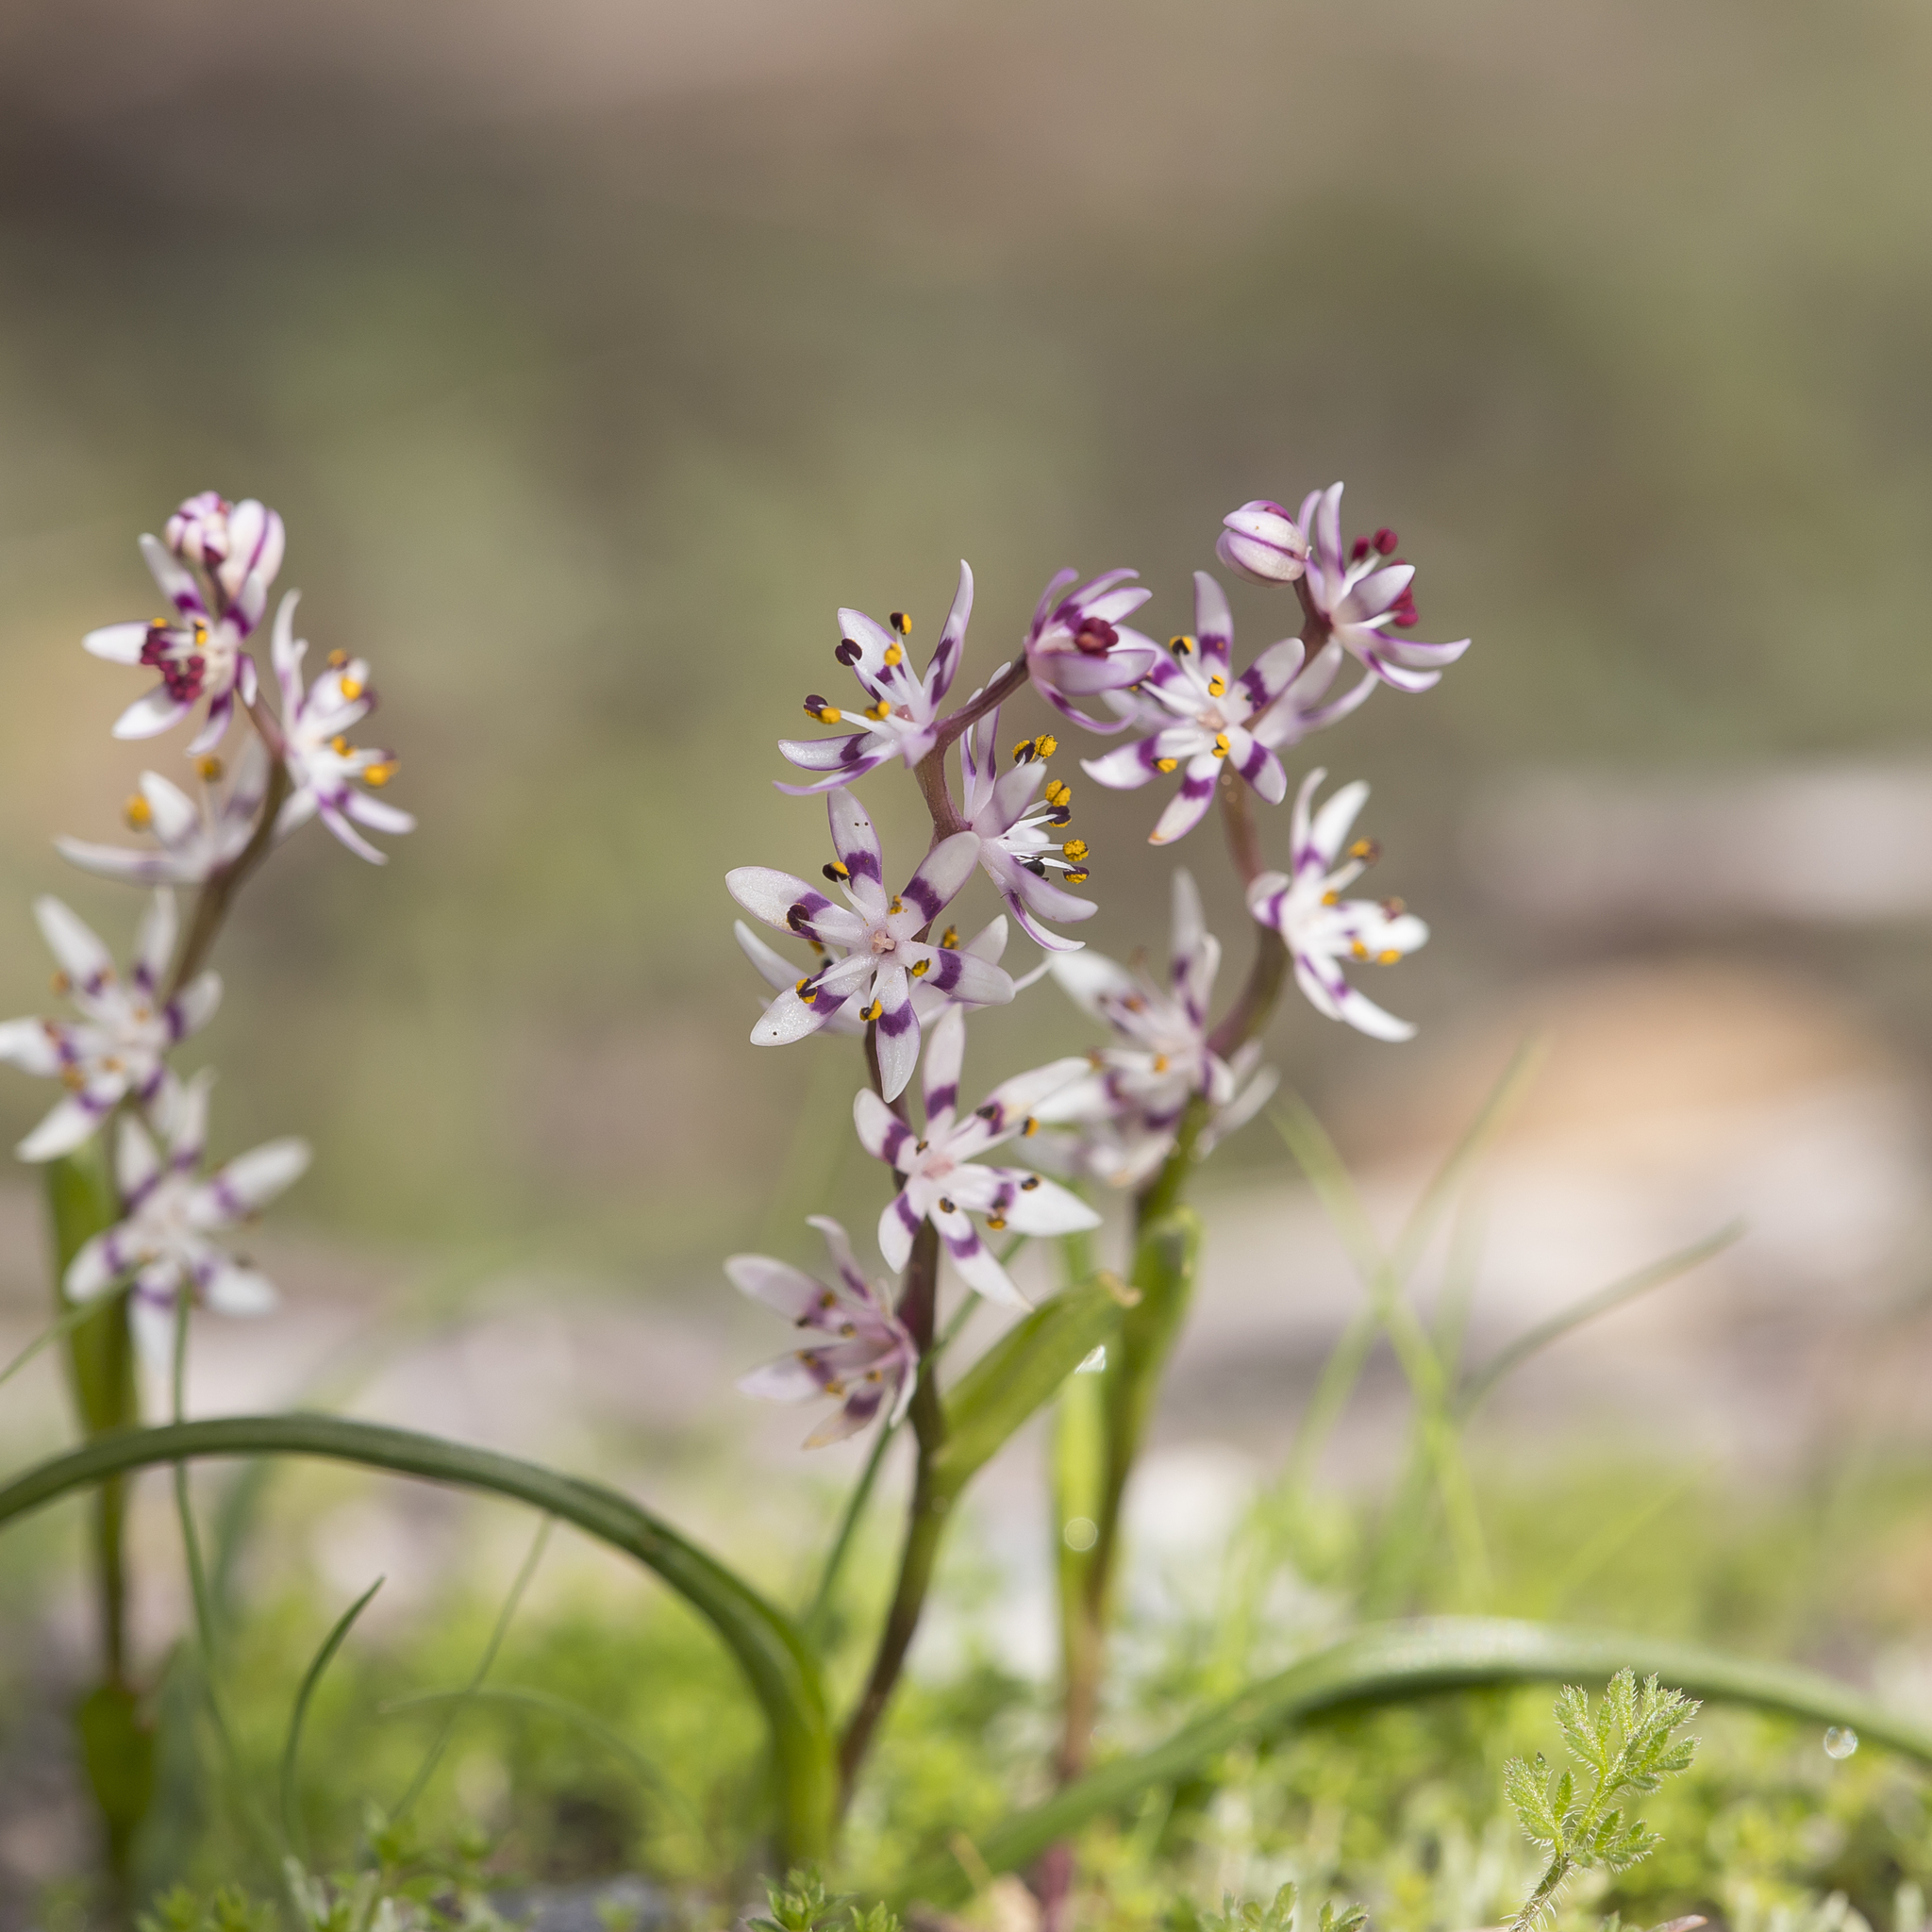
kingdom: Plantae
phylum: Tracheophyta
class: Liliopsida
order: Liliales
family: Colchicaceae
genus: Wurmbea
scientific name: Wurmbea dioica
